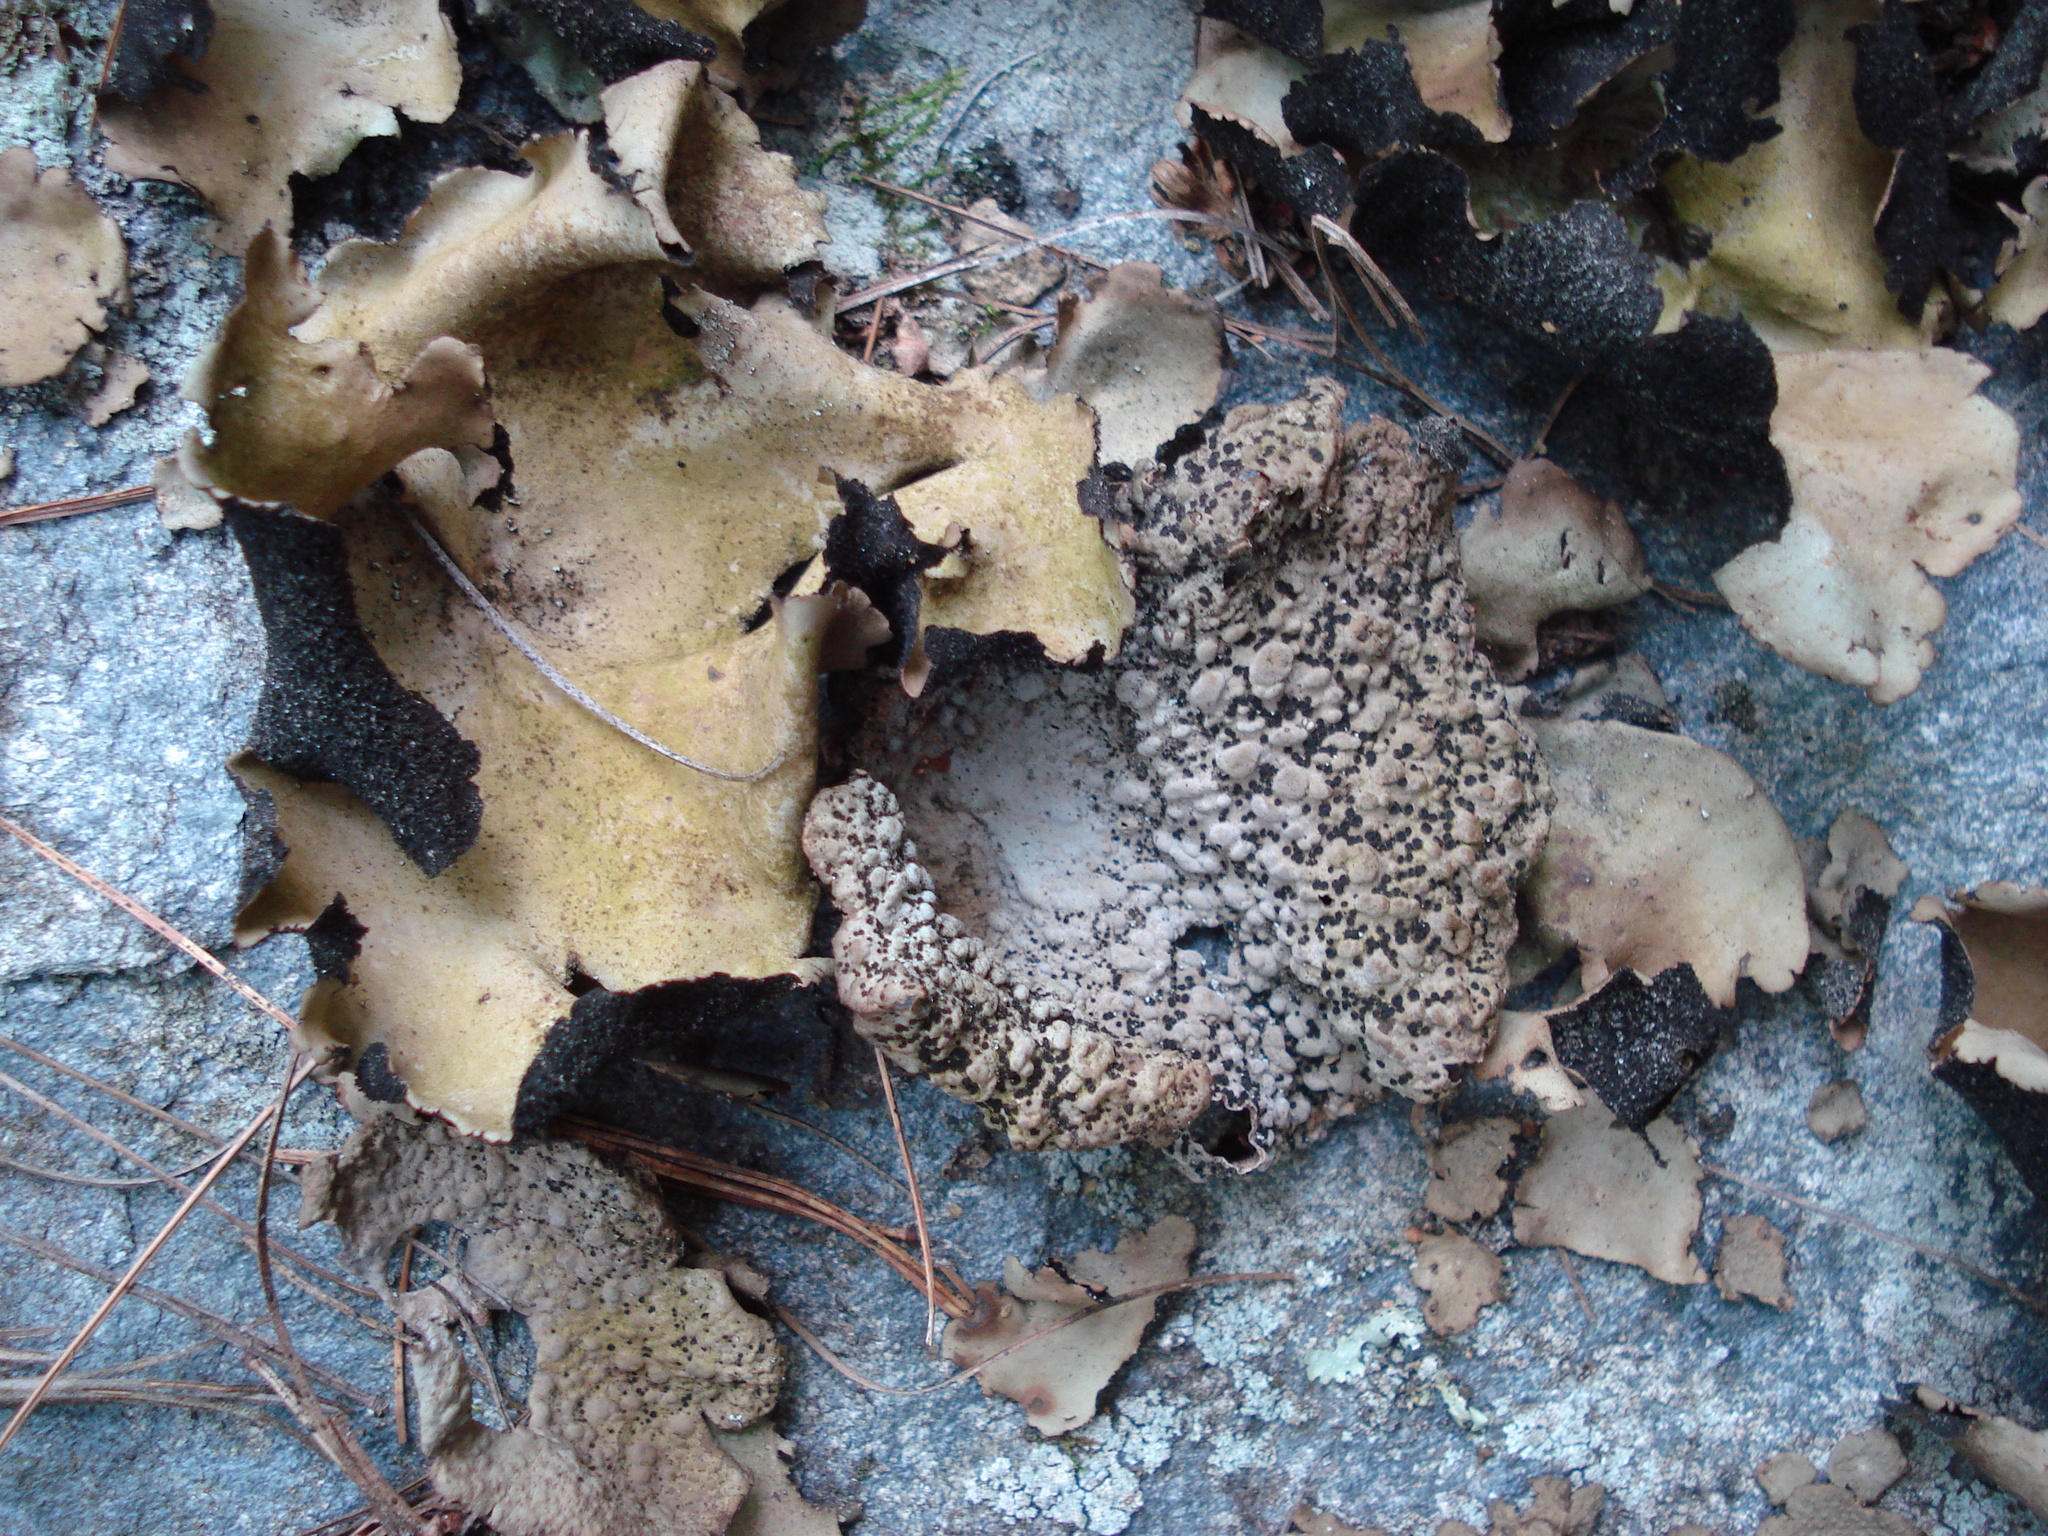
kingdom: Fungi
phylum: Ascomycota
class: Lecanoromycetes
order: Umbilicariales
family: Umbilicariaceae
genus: Lasallia
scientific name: Lasallia papulosa
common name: Common toadskin lichen
